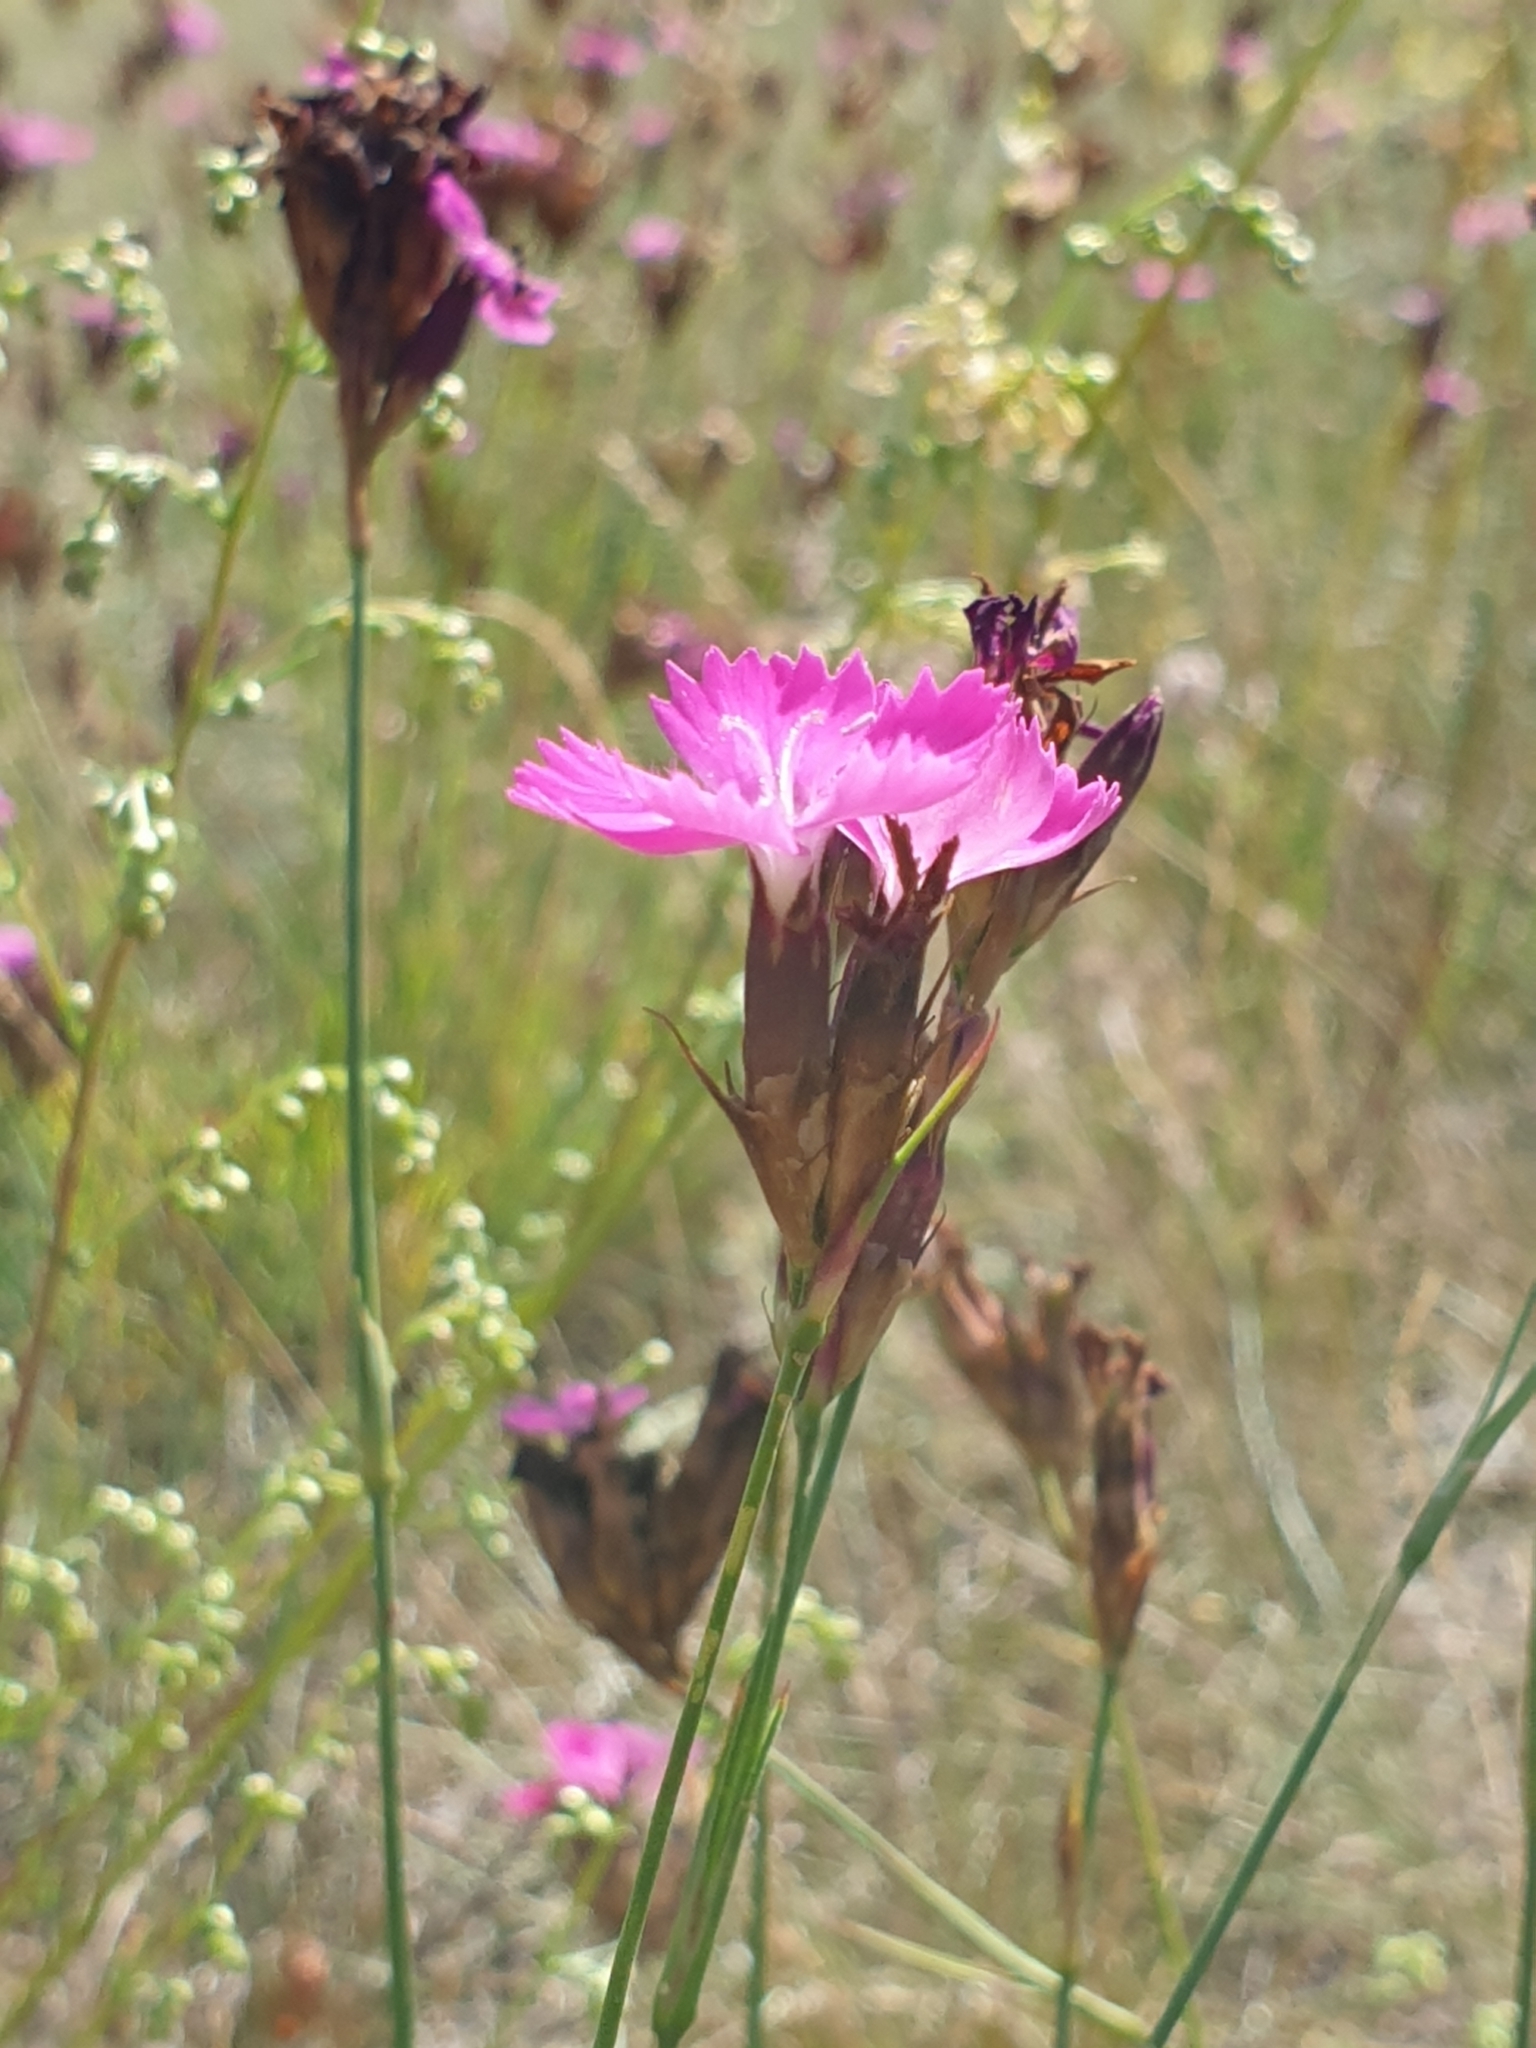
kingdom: Plantae
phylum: Tracheophyta
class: Magnoliopsida
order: Caryophyllales
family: Caryophyllaceae
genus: Dianthus
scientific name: Dianthus carthusianorum
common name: Carthusian pink
